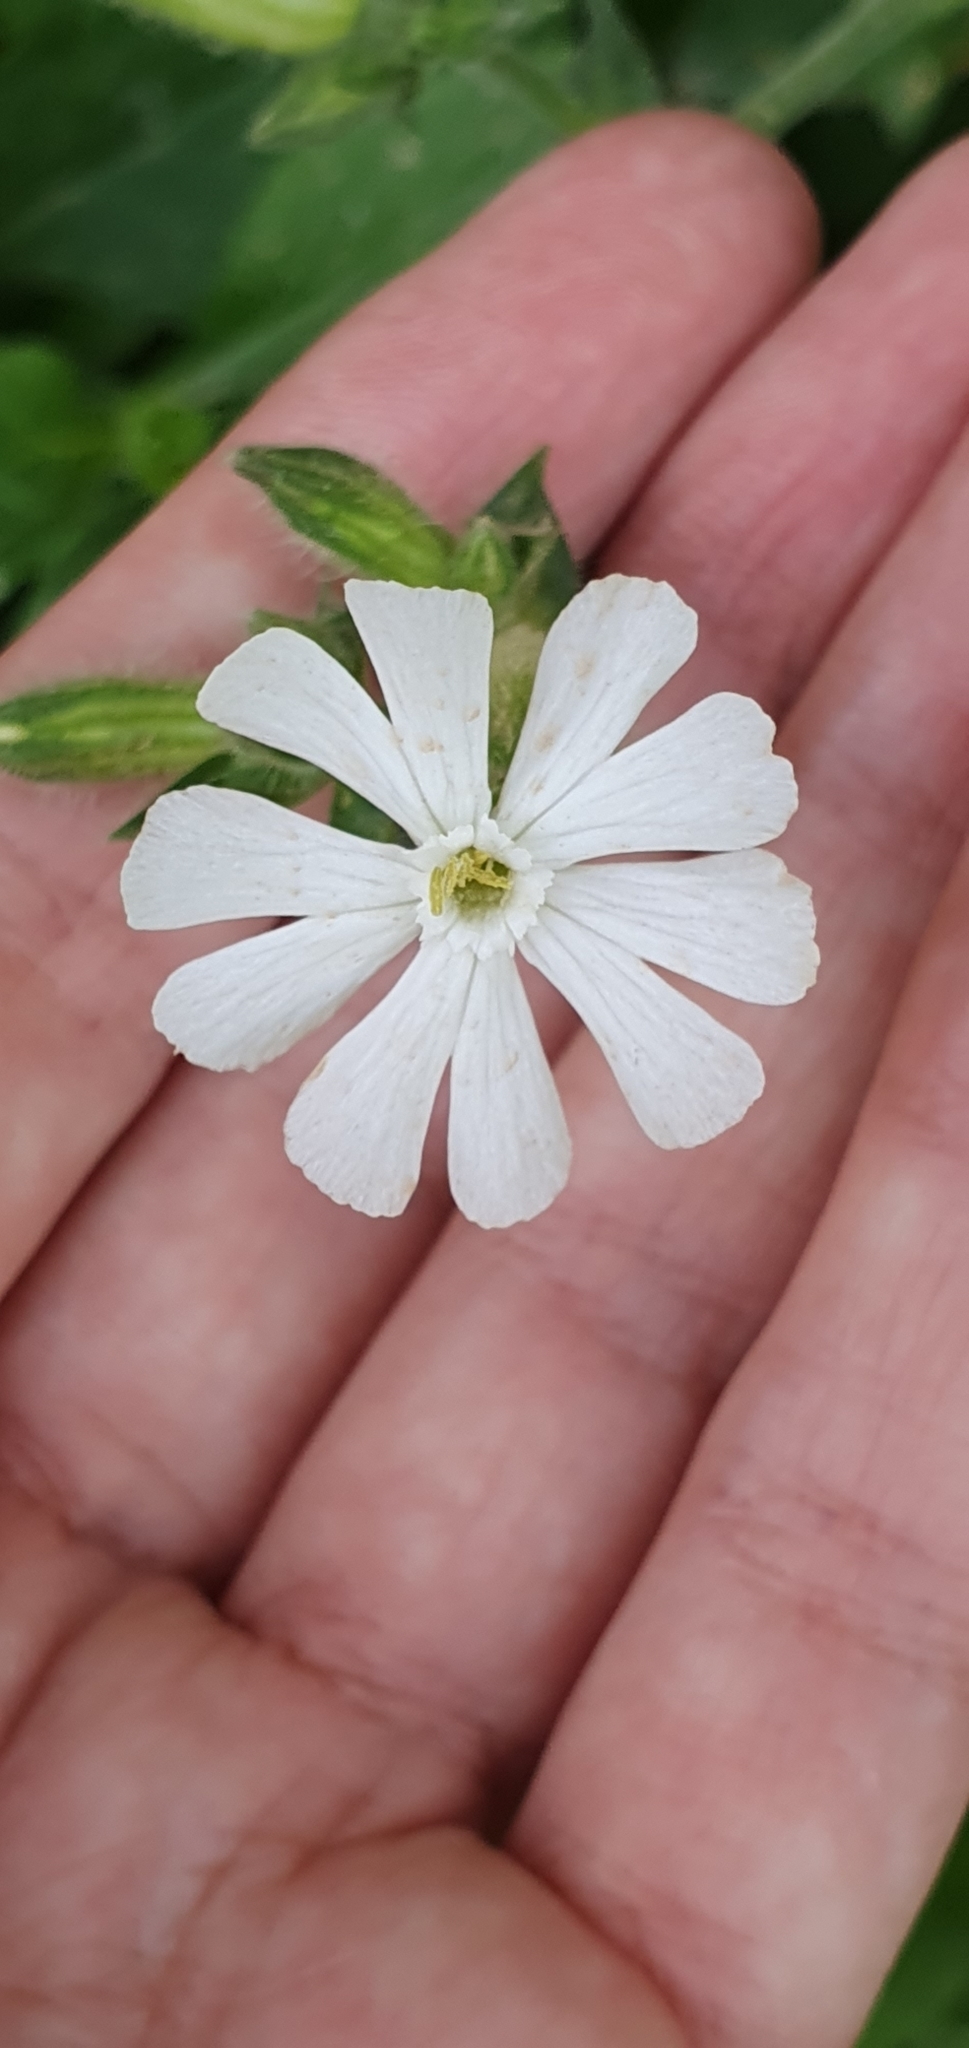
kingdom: Plantae
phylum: Tracheophyta
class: Magnoliopsida
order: Caryophyllales
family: Caryophyllaceae
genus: Silene
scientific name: Silene latifolia
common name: White campion
